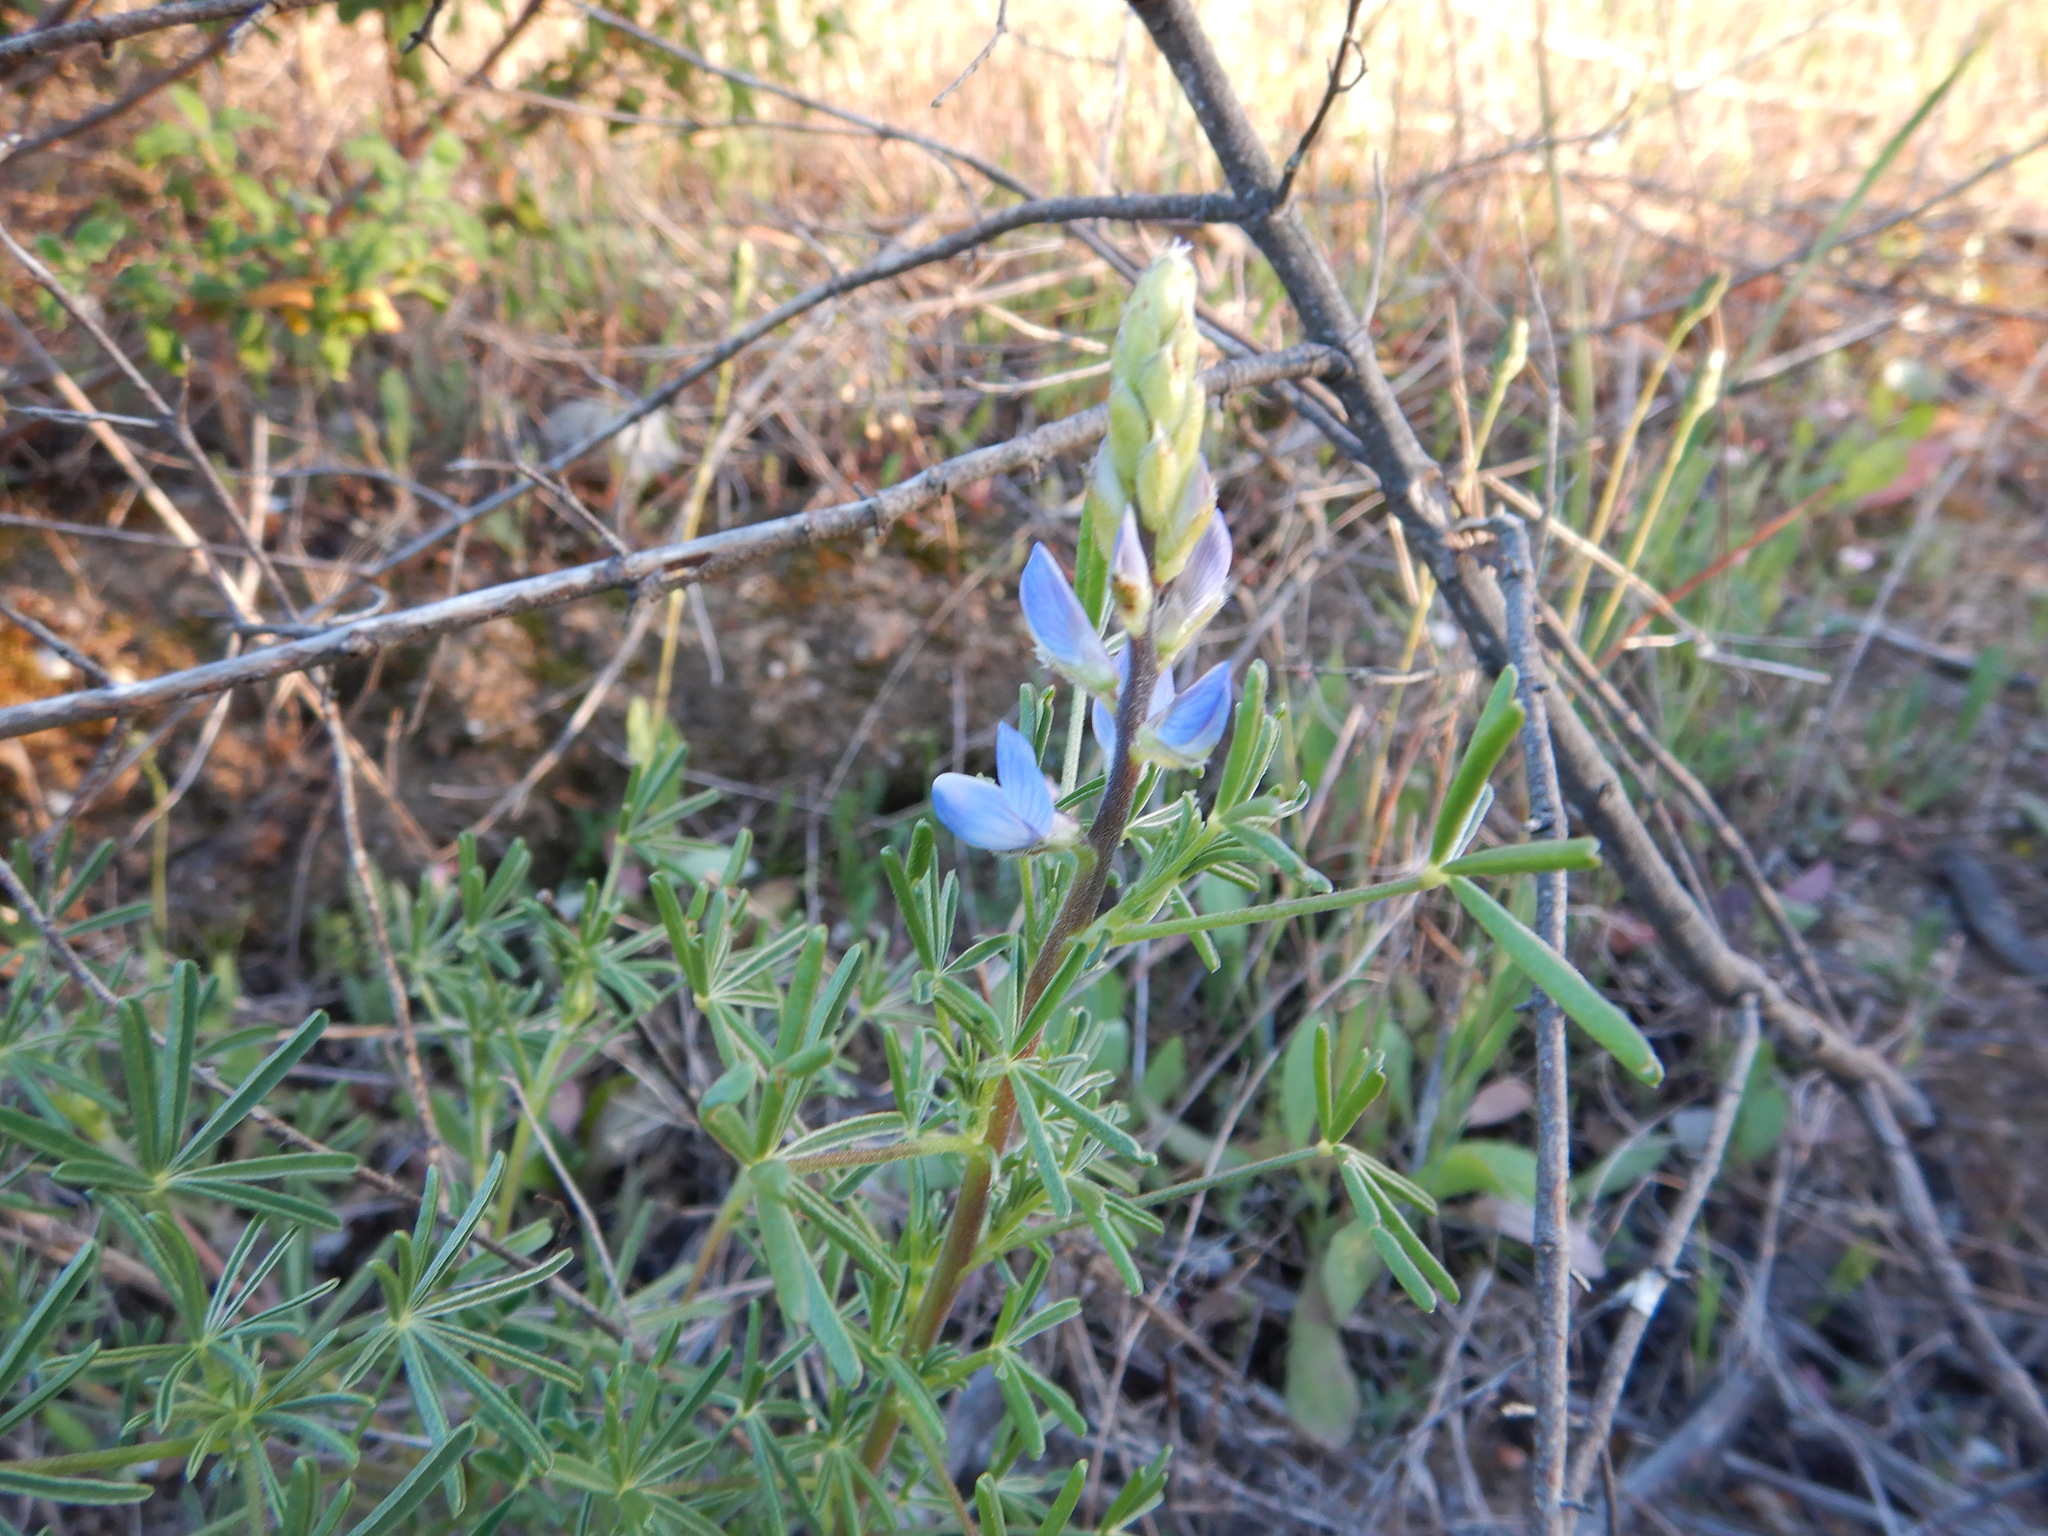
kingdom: Plantae
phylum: Tracheophyta
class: Magnoliopsida
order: Fabales
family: Fabaceae
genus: Lupinus
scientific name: Lupinus angustifolius
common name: Narrow-leaved lupin
